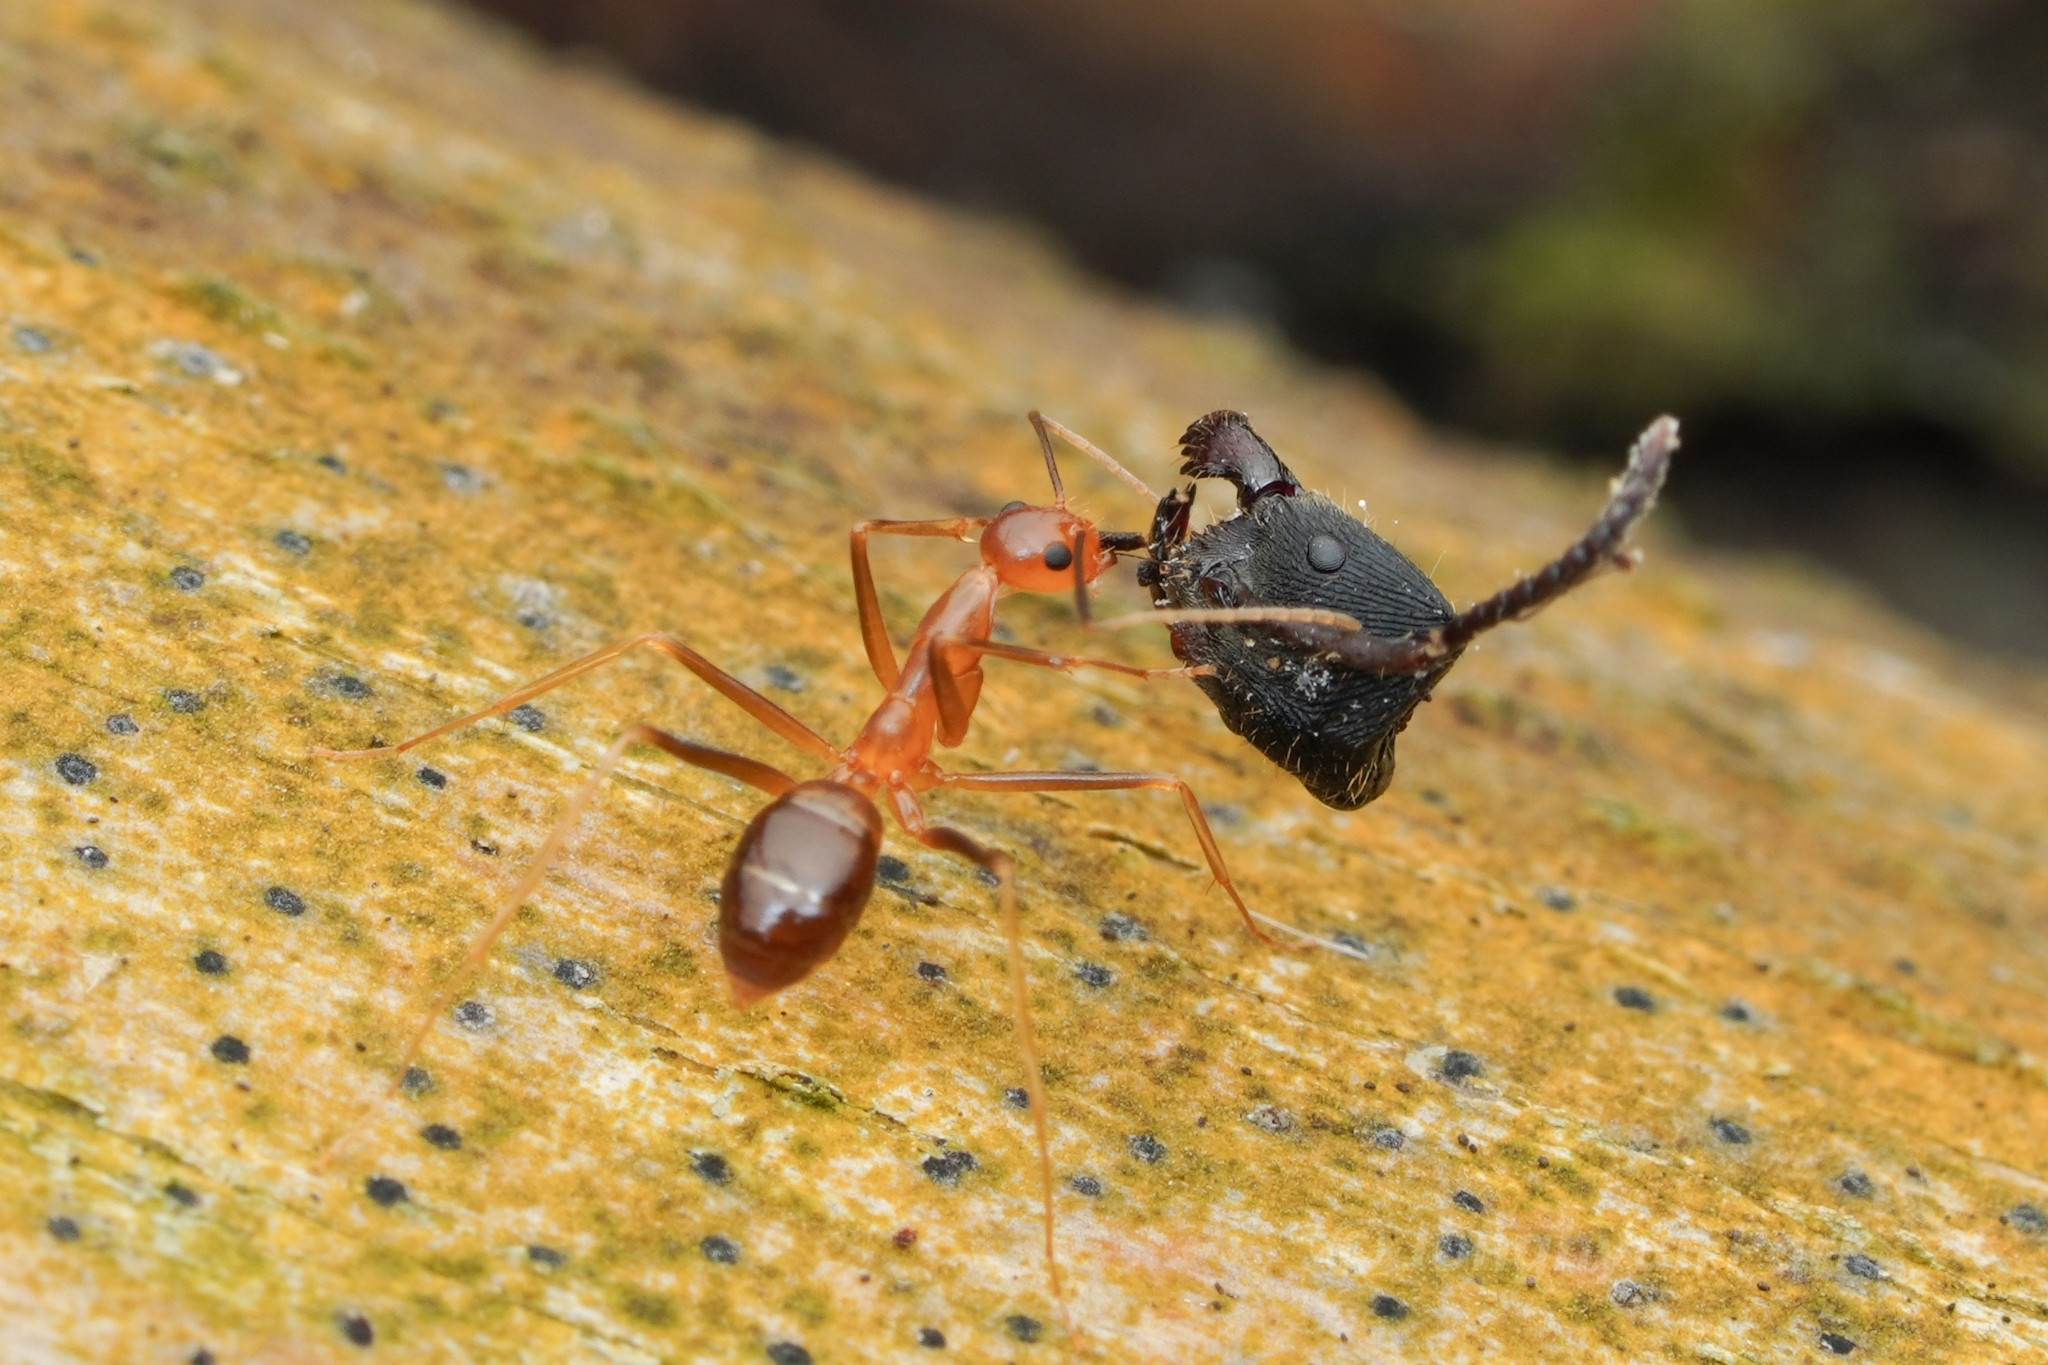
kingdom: Animalia
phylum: Arthropoda
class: Insecta
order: Hymenoptera
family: Formicidae
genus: Anoplolepis
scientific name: Anoplolepis gracilipes
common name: Ant
